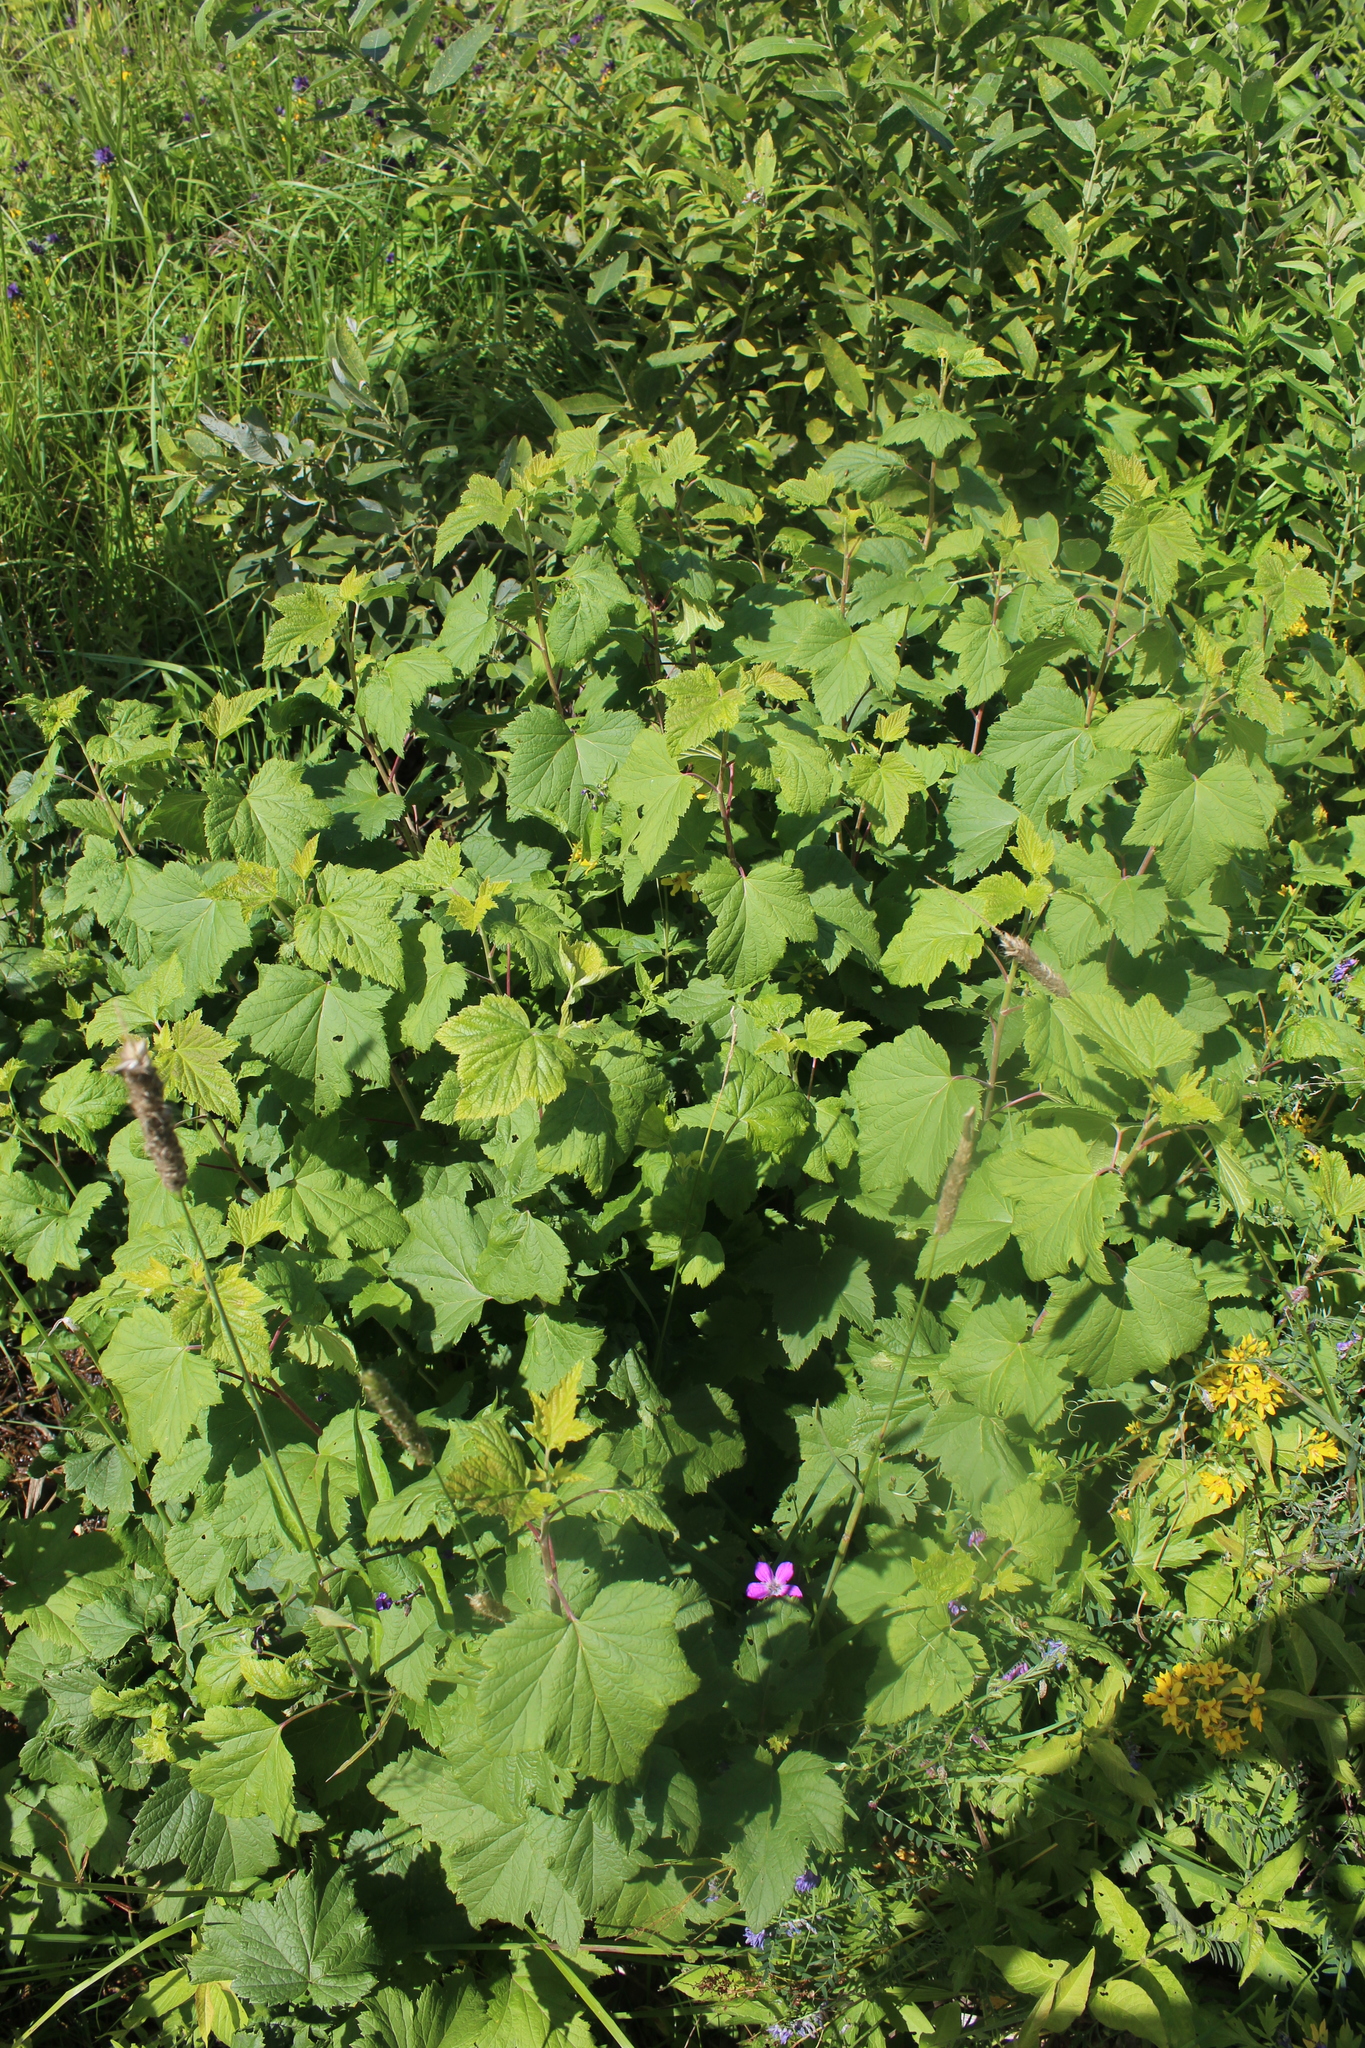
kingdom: Plantae
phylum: Tracheophyta
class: Magnoliopsida
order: Saxifragales
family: Grossulariaceae
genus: Ribes
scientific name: Ribes nigrum
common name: Black currant
